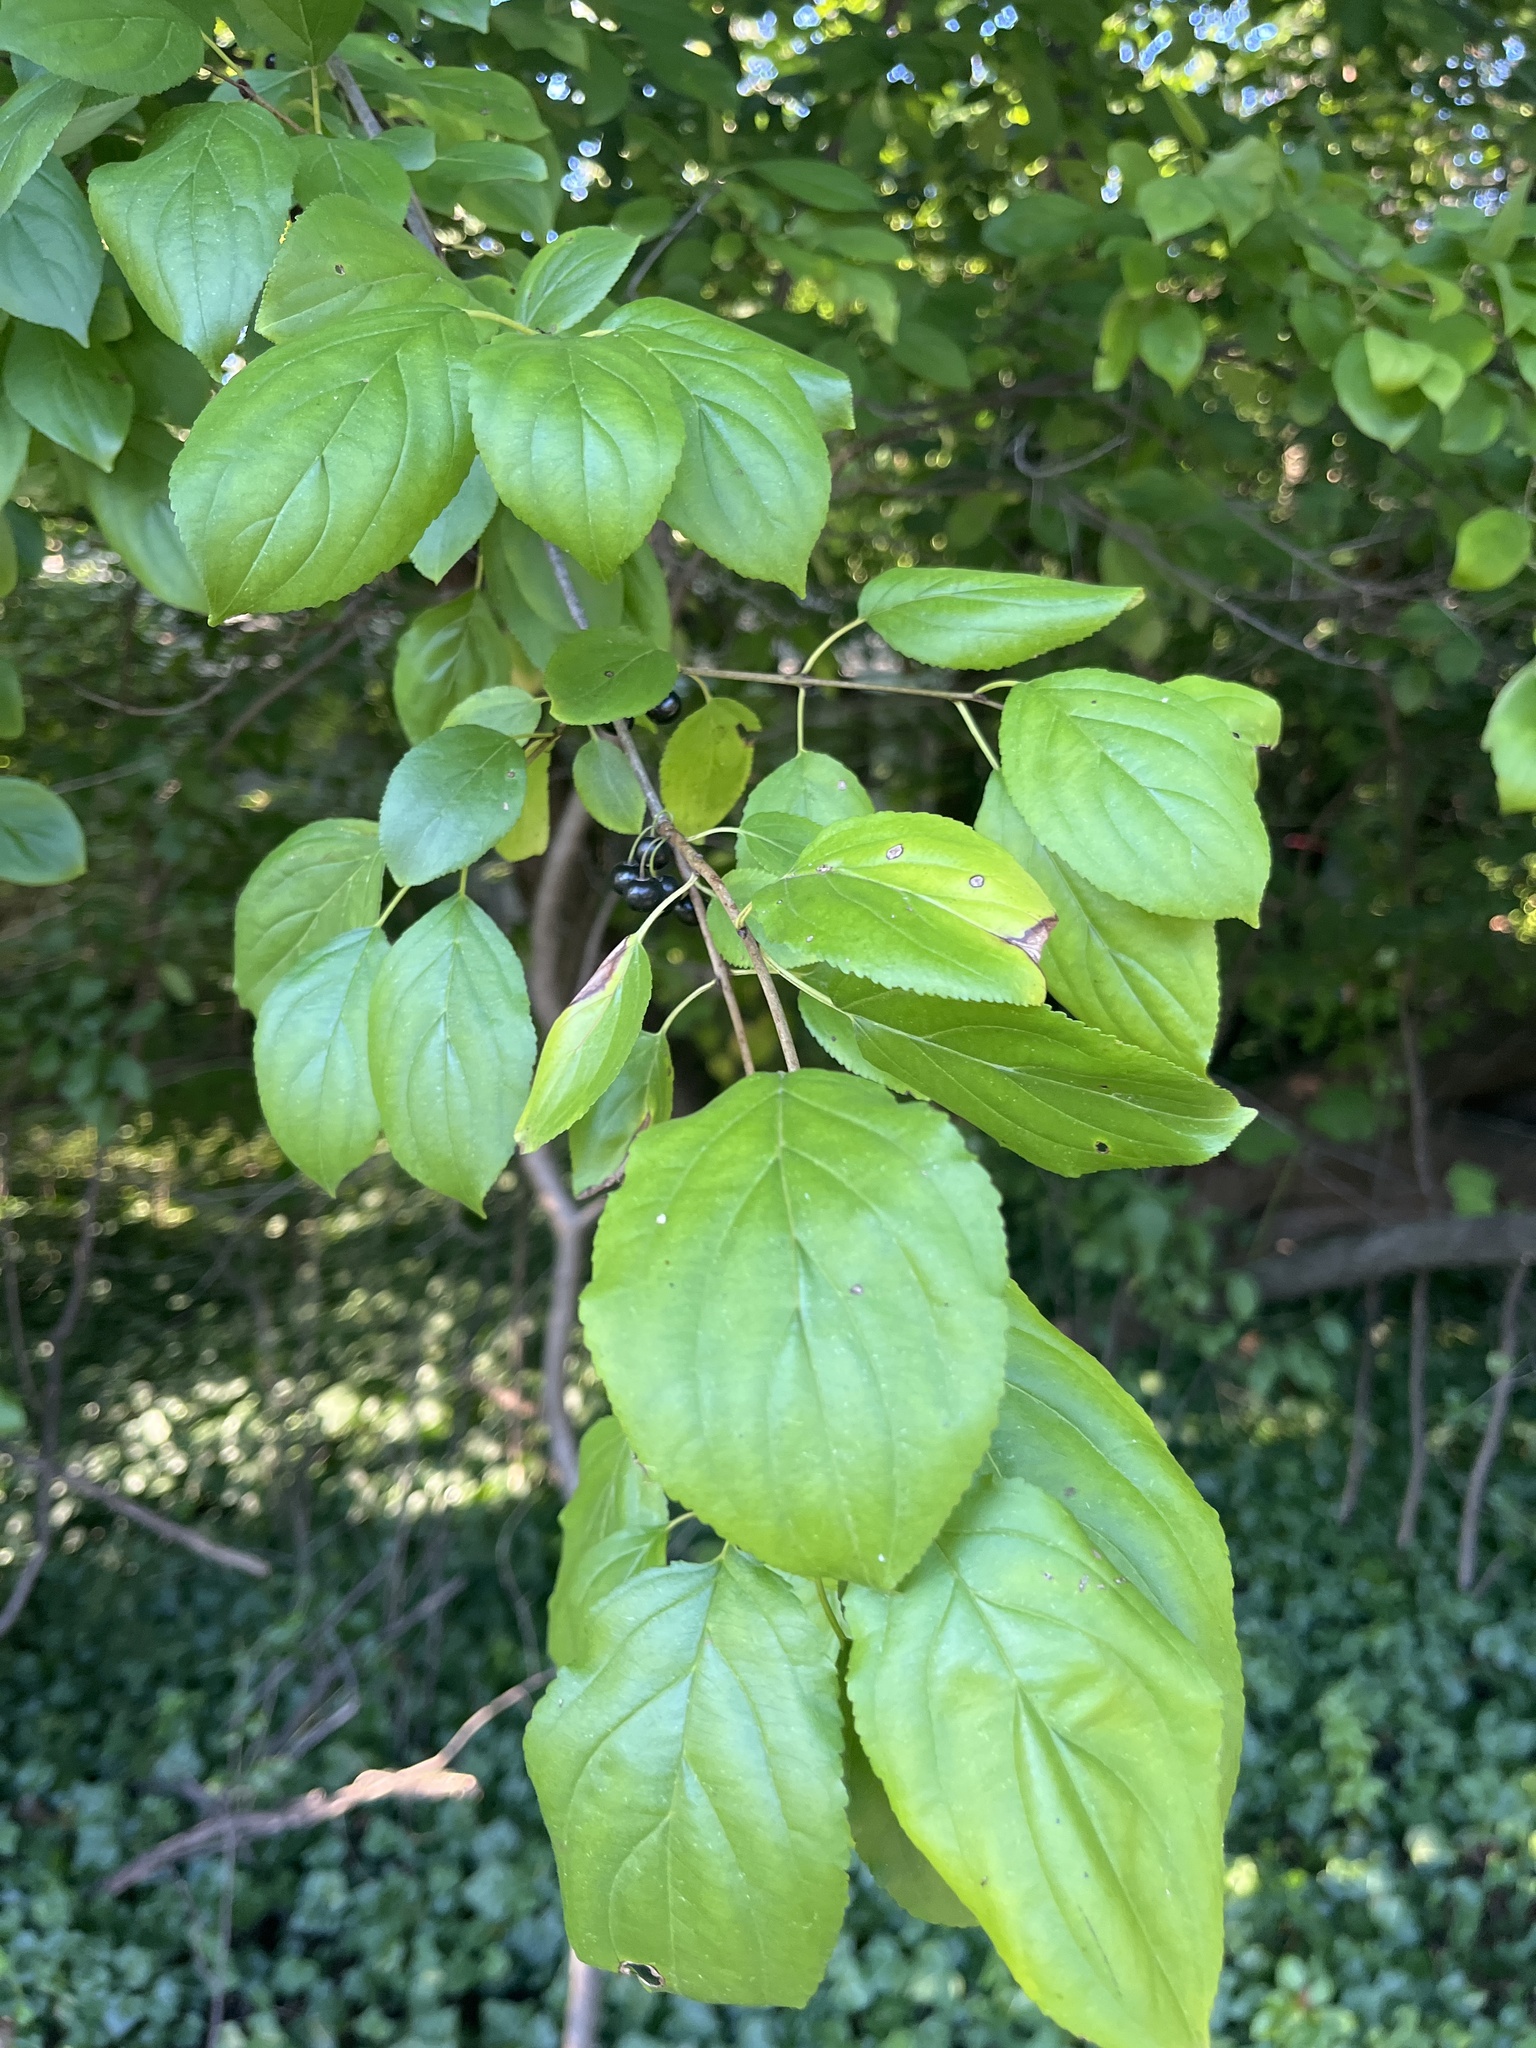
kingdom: Plantae
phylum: Tracheophyta
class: Magnoliopsida
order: Rosales
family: Rhamnaceae
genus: Rhamnus
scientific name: Rhamnus cathartica
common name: Common buckthorn
